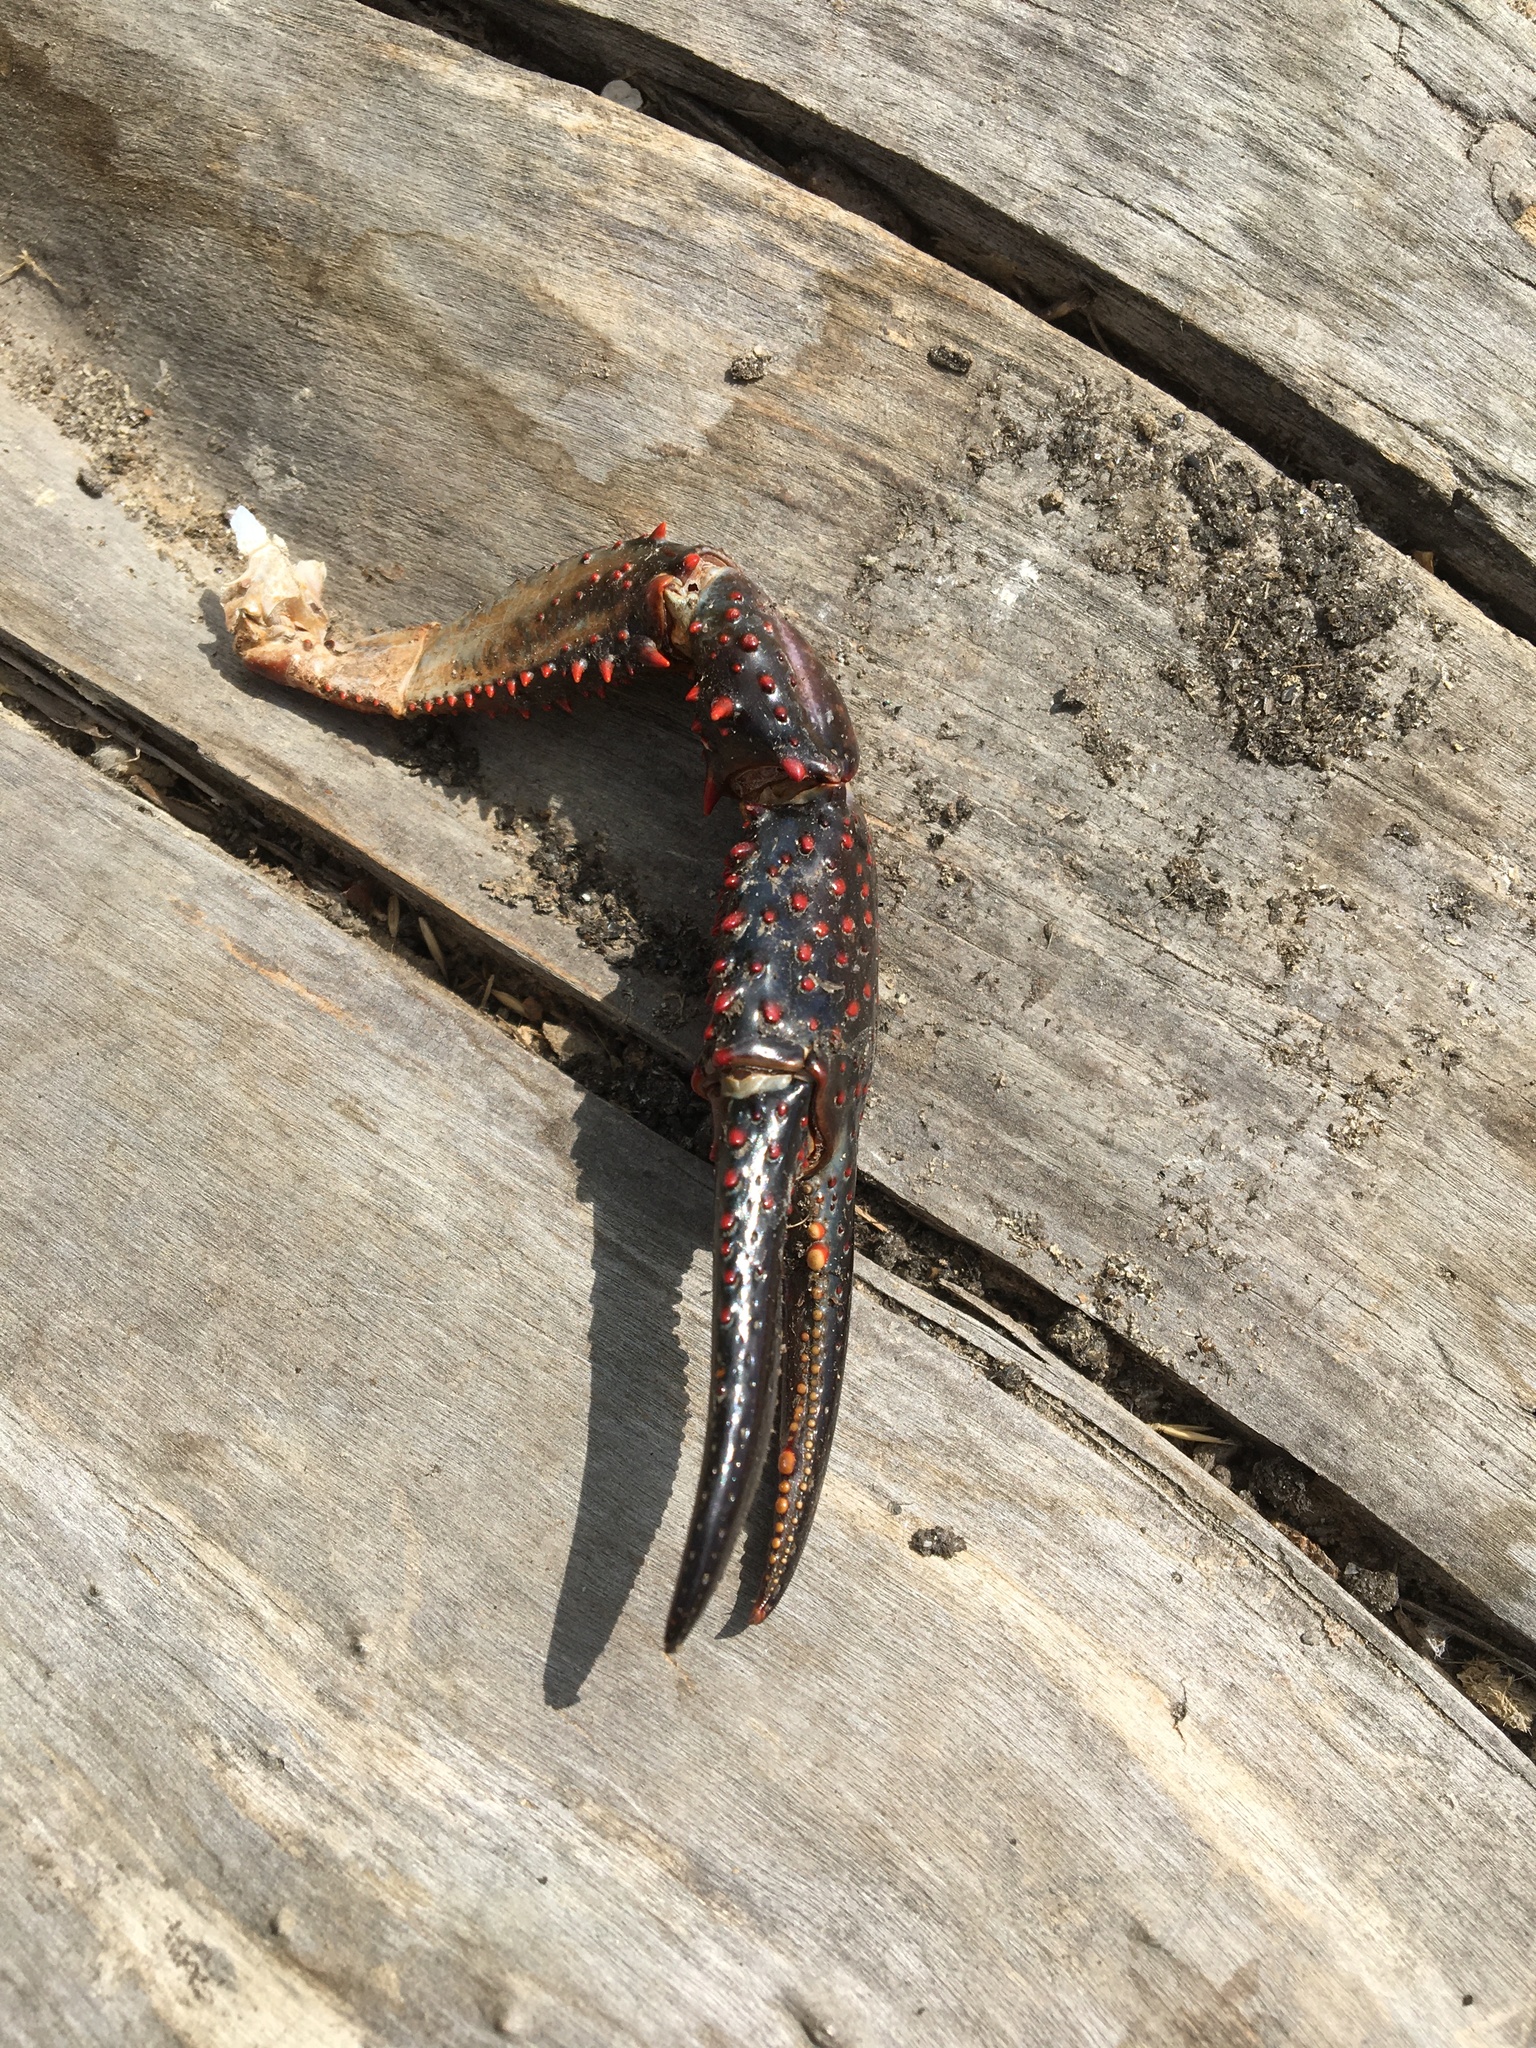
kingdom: Animalia
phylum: Arthropoda
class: Malacostraca
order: Decapoda
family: Cambaridae
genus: Procambarus
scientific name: Procambarus clarkii
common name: Red swamp crayfish
